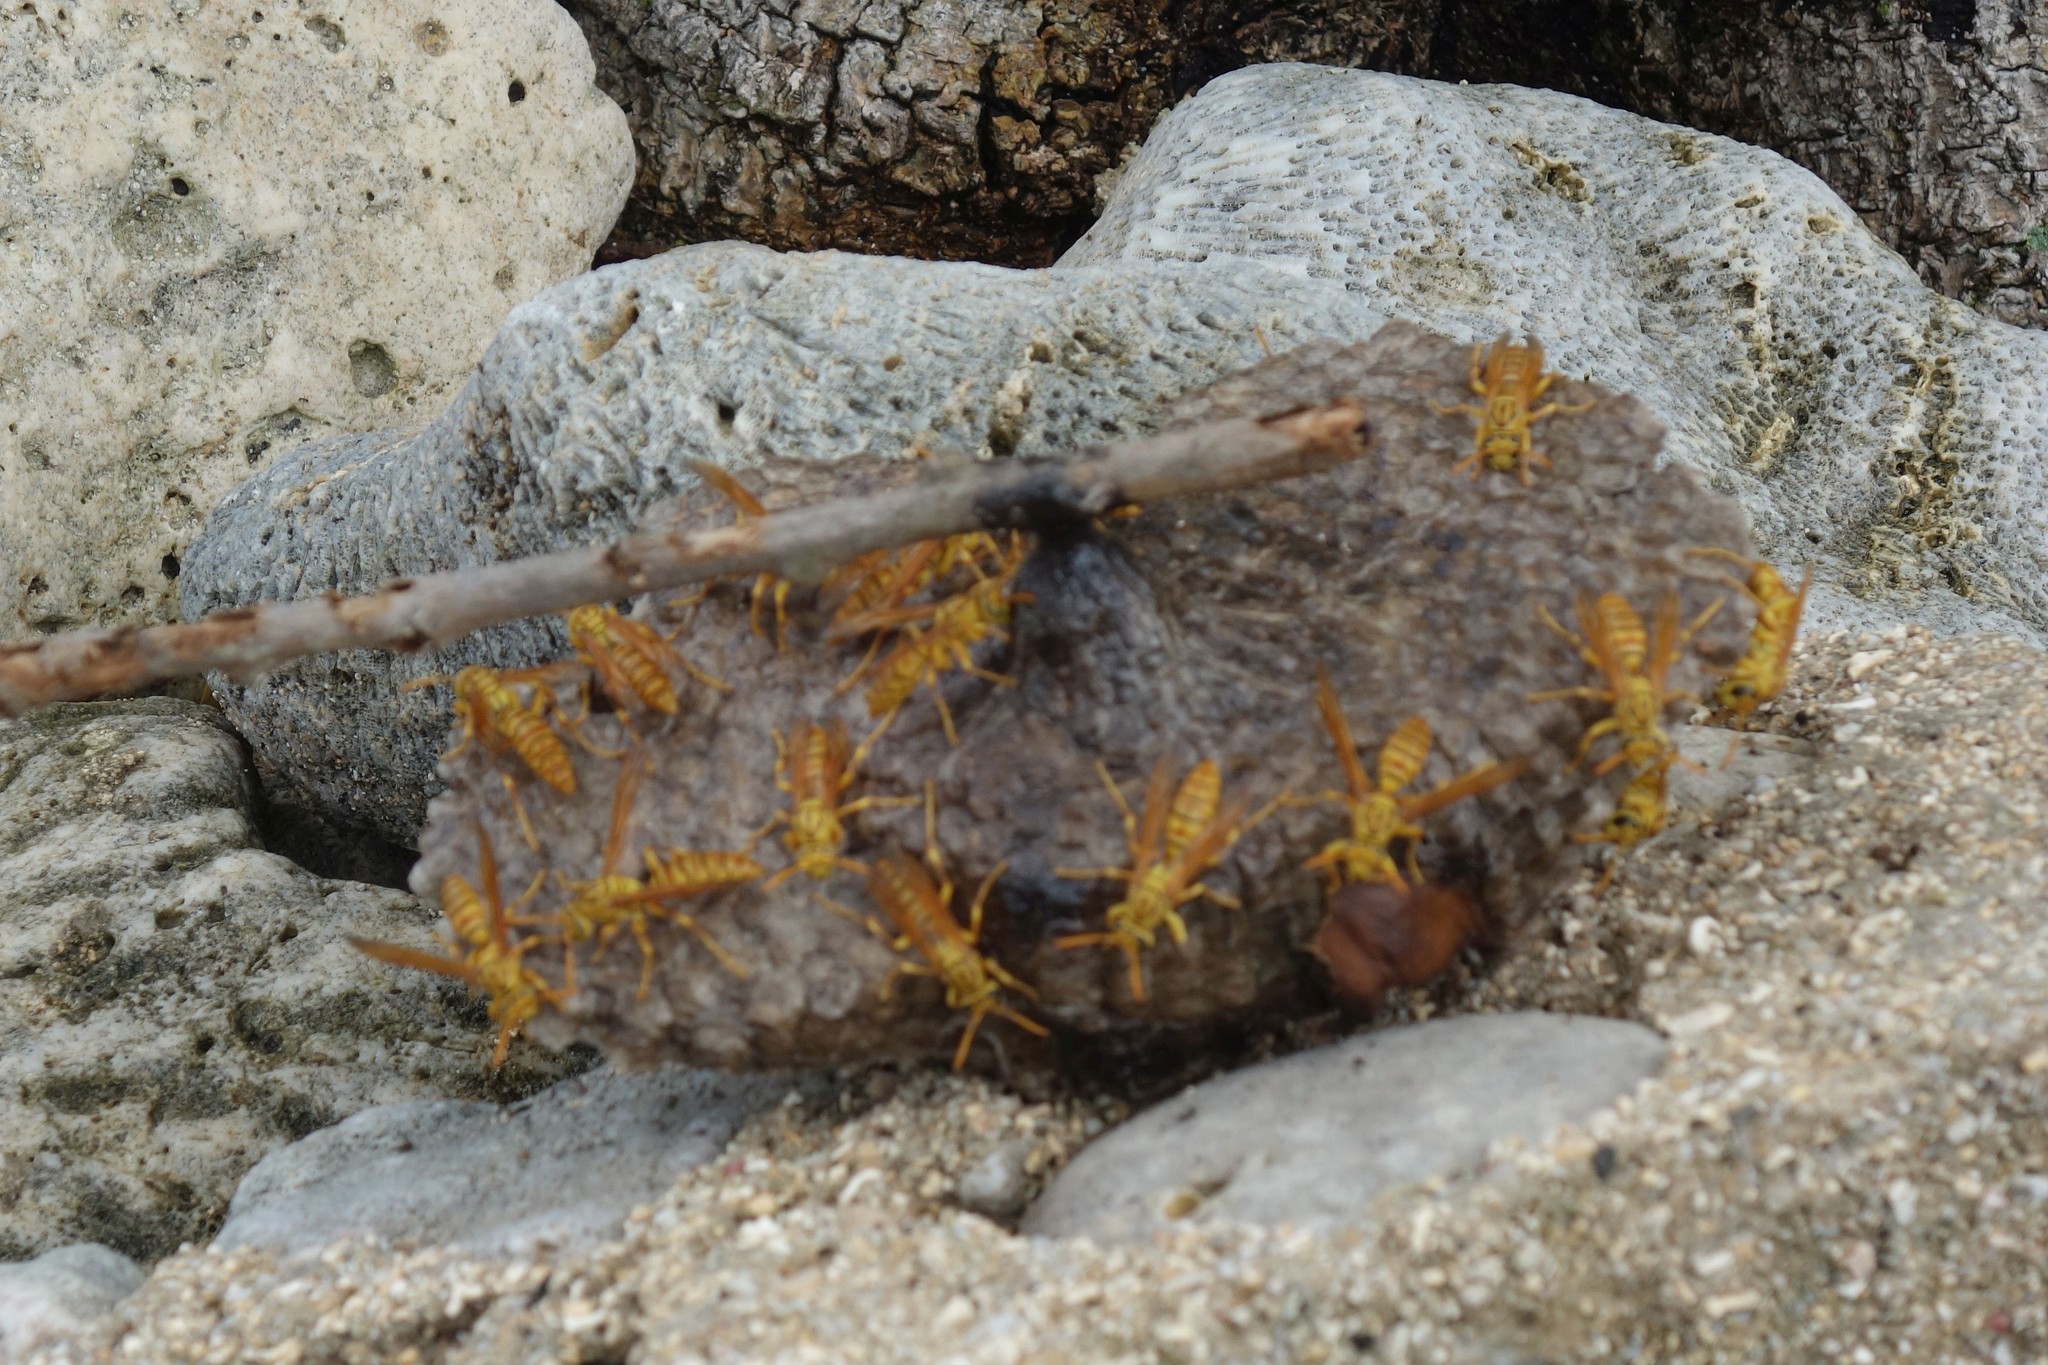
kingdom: Animalia
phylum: Arthropoda
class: Insecta
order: Hymenoptera
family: Eumenidae
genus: Polistes
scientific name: Polistes olivaceus
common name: Paper wasp
